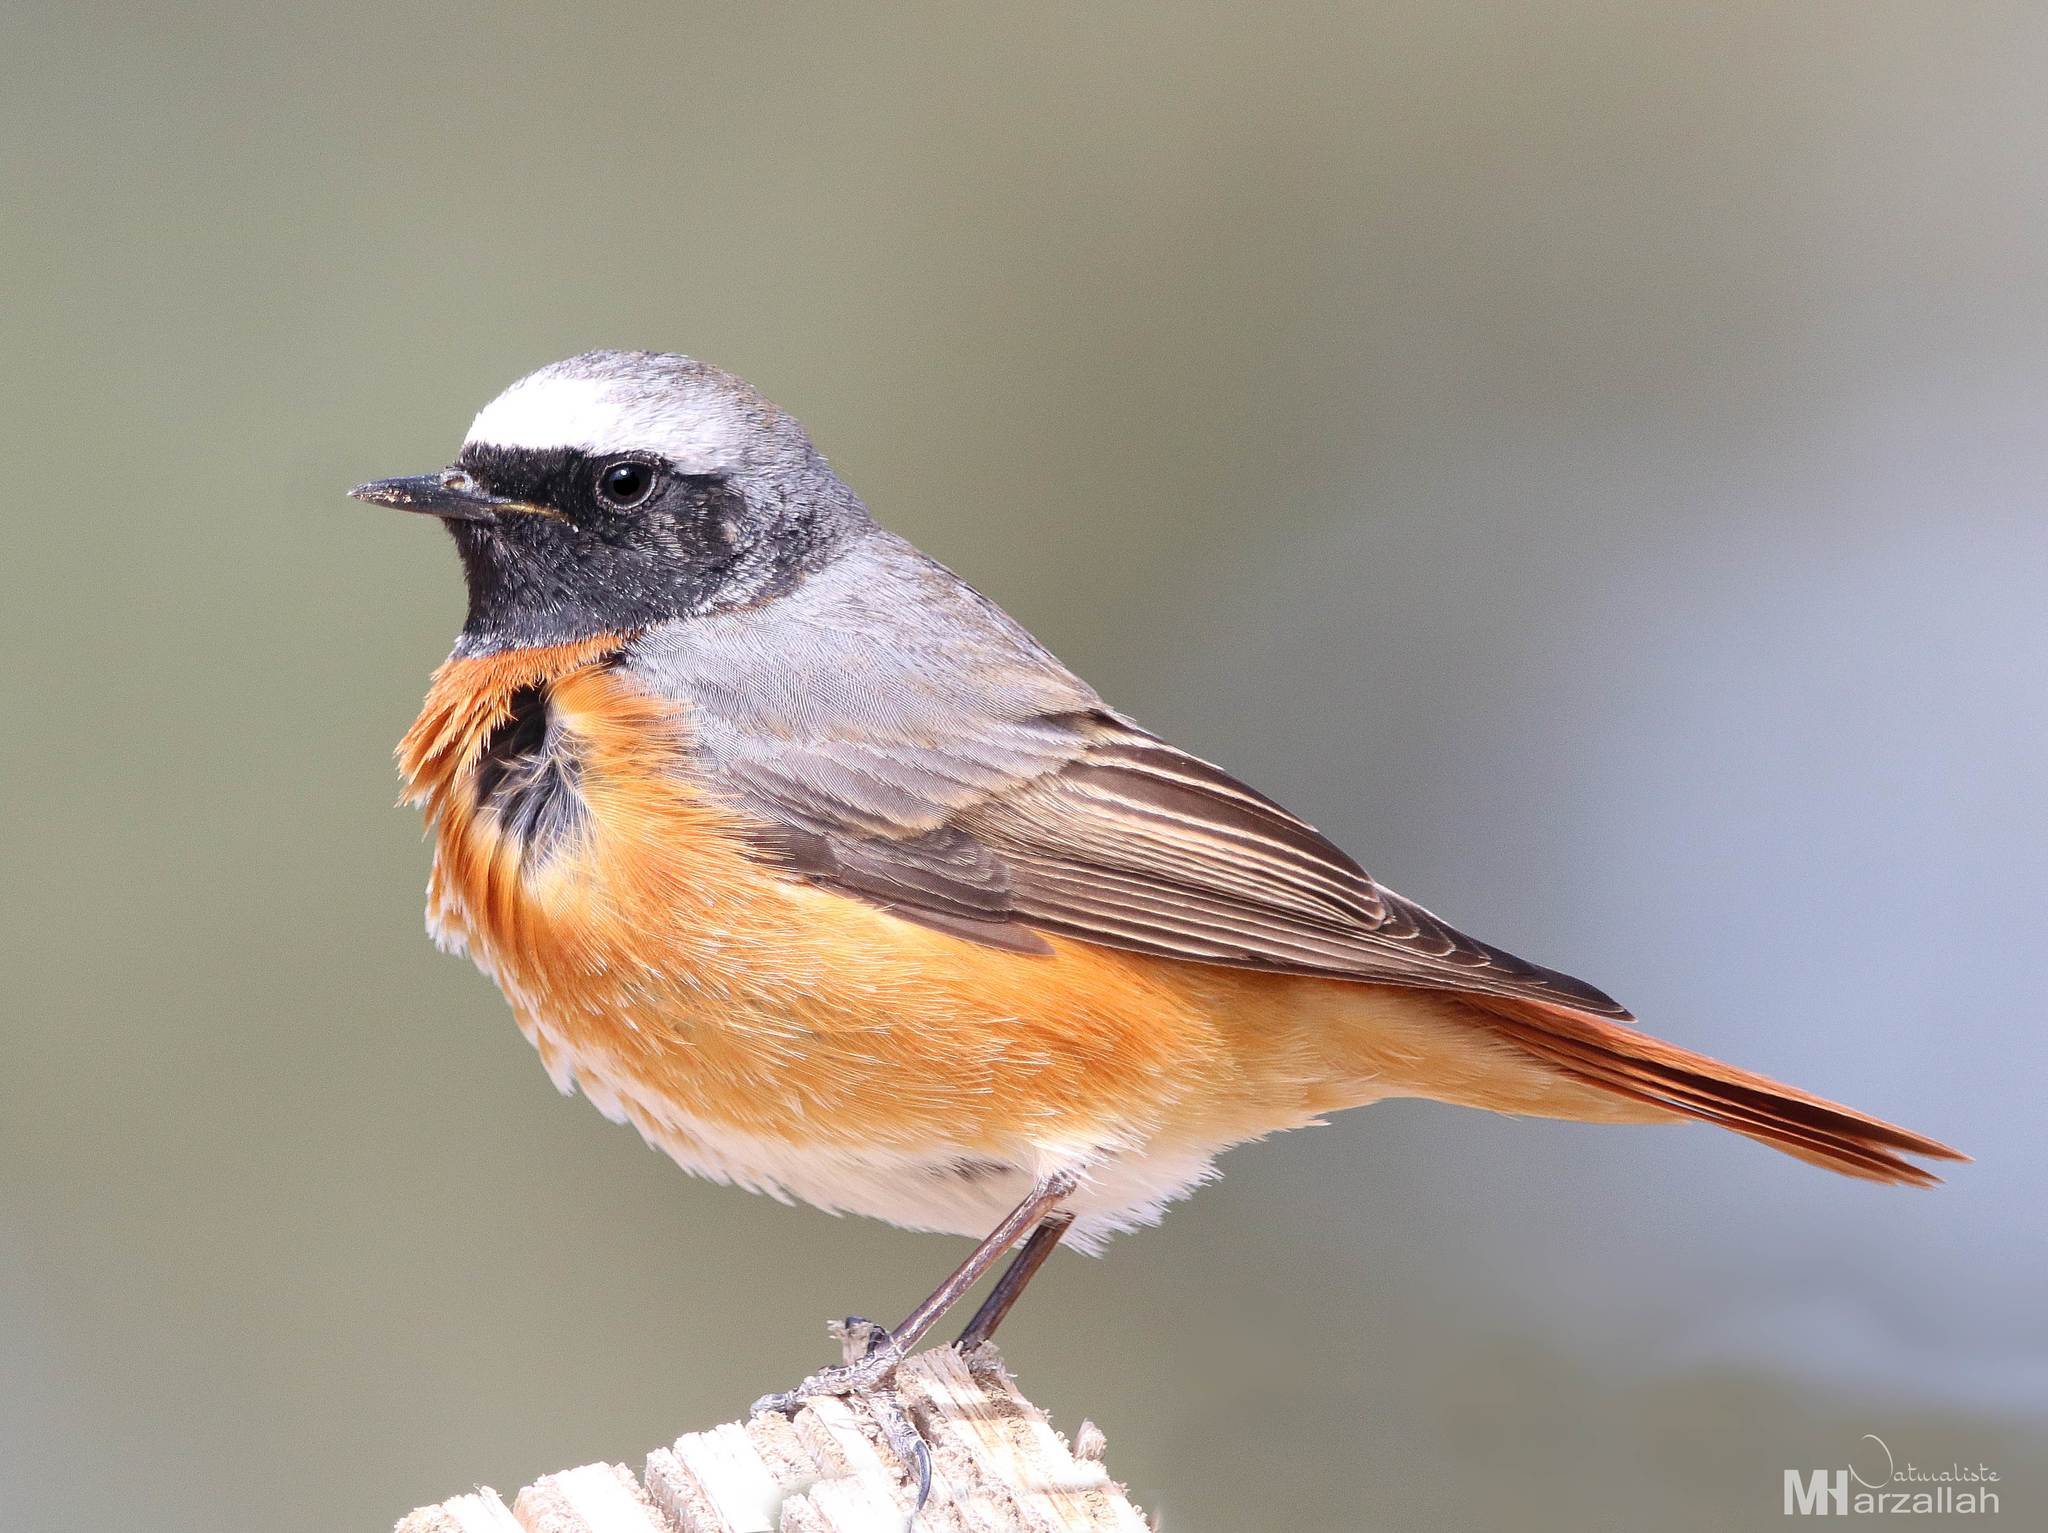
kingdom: Animalia
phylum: Chordata
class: Aves
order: Passeriformes
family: Muscicapidae
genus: Phoenicurus
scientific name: Phoenicurus phoenicurus
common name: Common redstart
